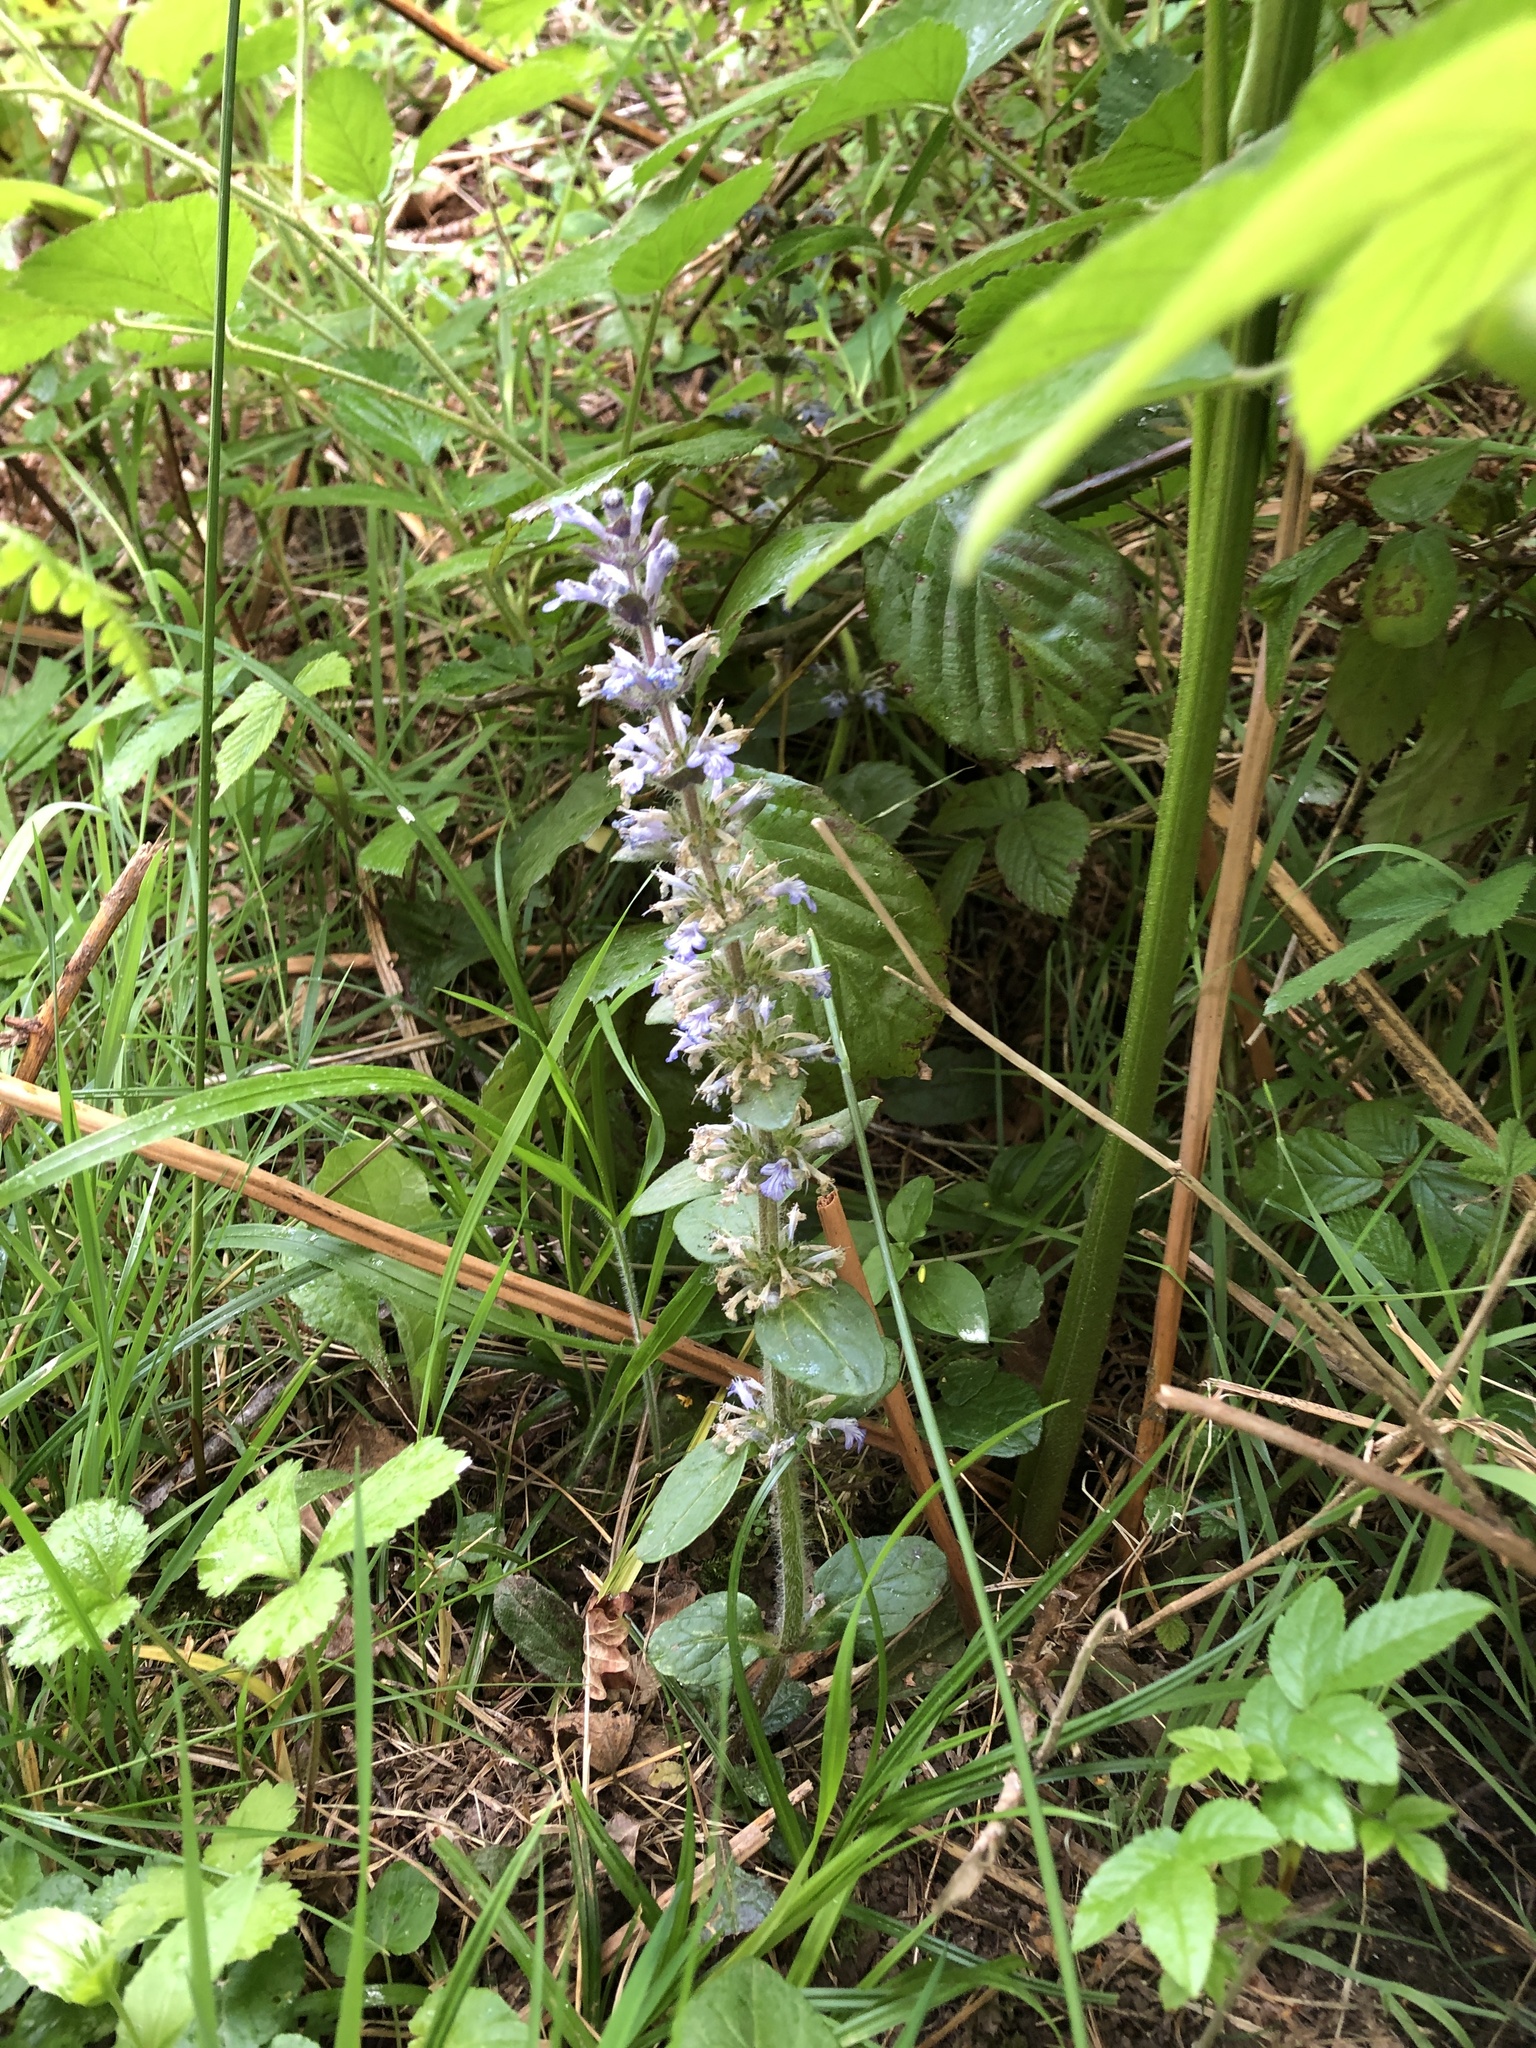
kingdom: Plantae
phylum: Tracheophyta
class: Magnoliopsida
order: Lamiales
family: Lamiaceae
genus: Ajuga
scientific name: Ajuga reptans
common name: Bugle
